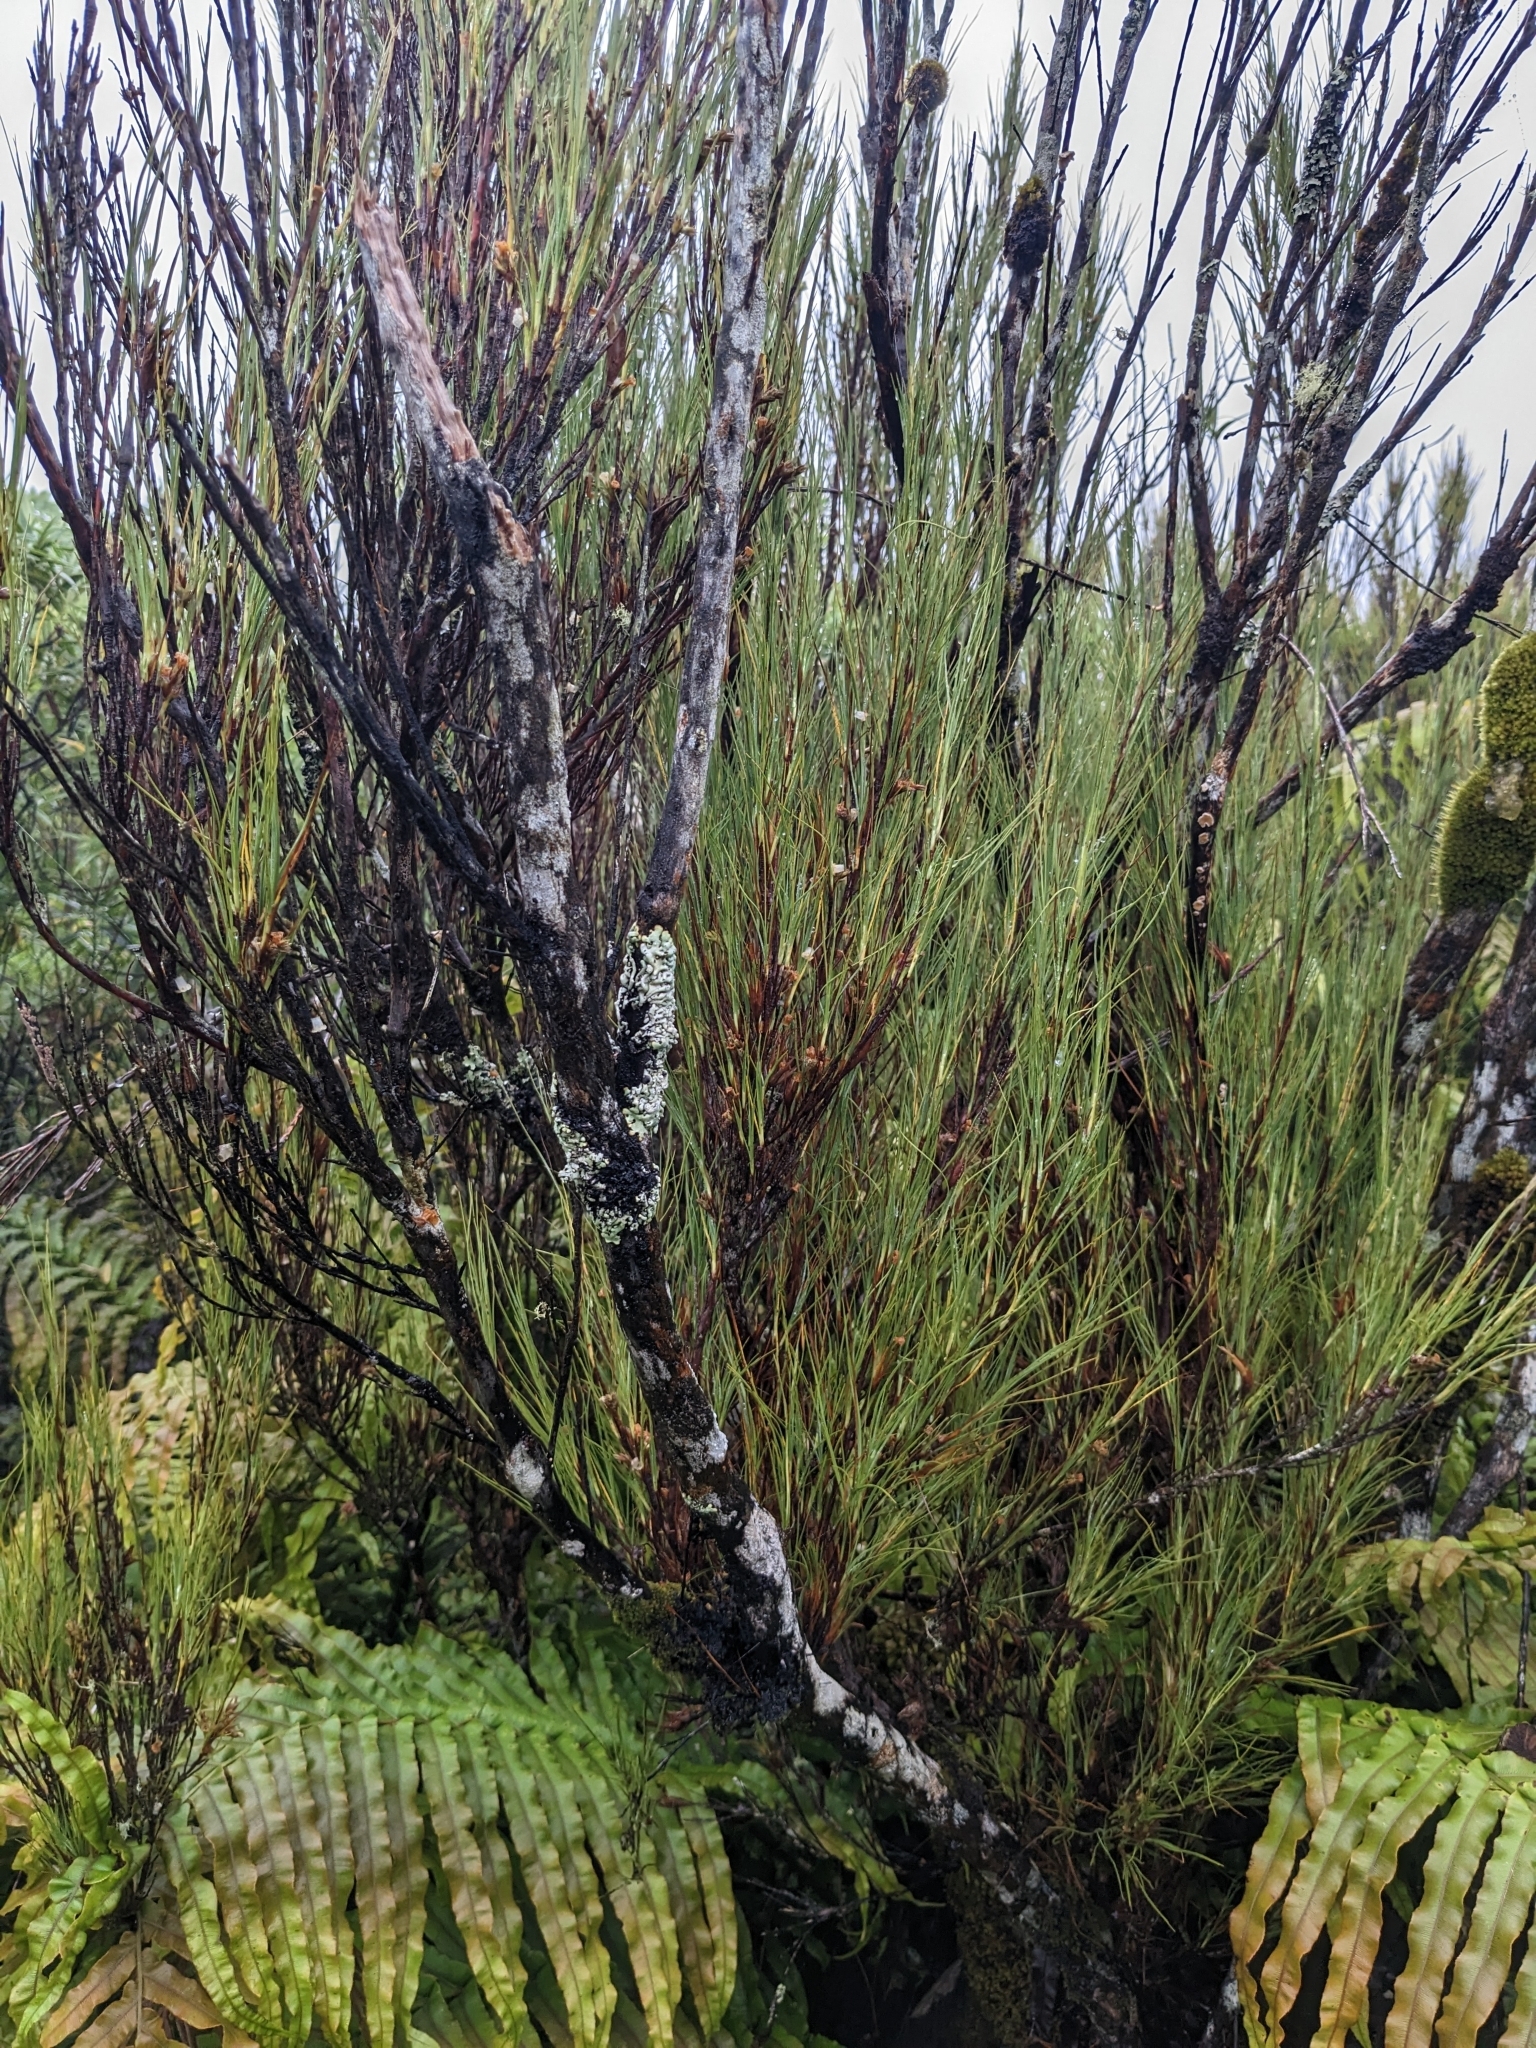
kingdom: Plantae
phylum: Tracheophyta
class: Magnoliopsida
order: Ericales
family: Ericaceae
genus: Dracophyllum
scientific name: Dracophyllum filifolium
